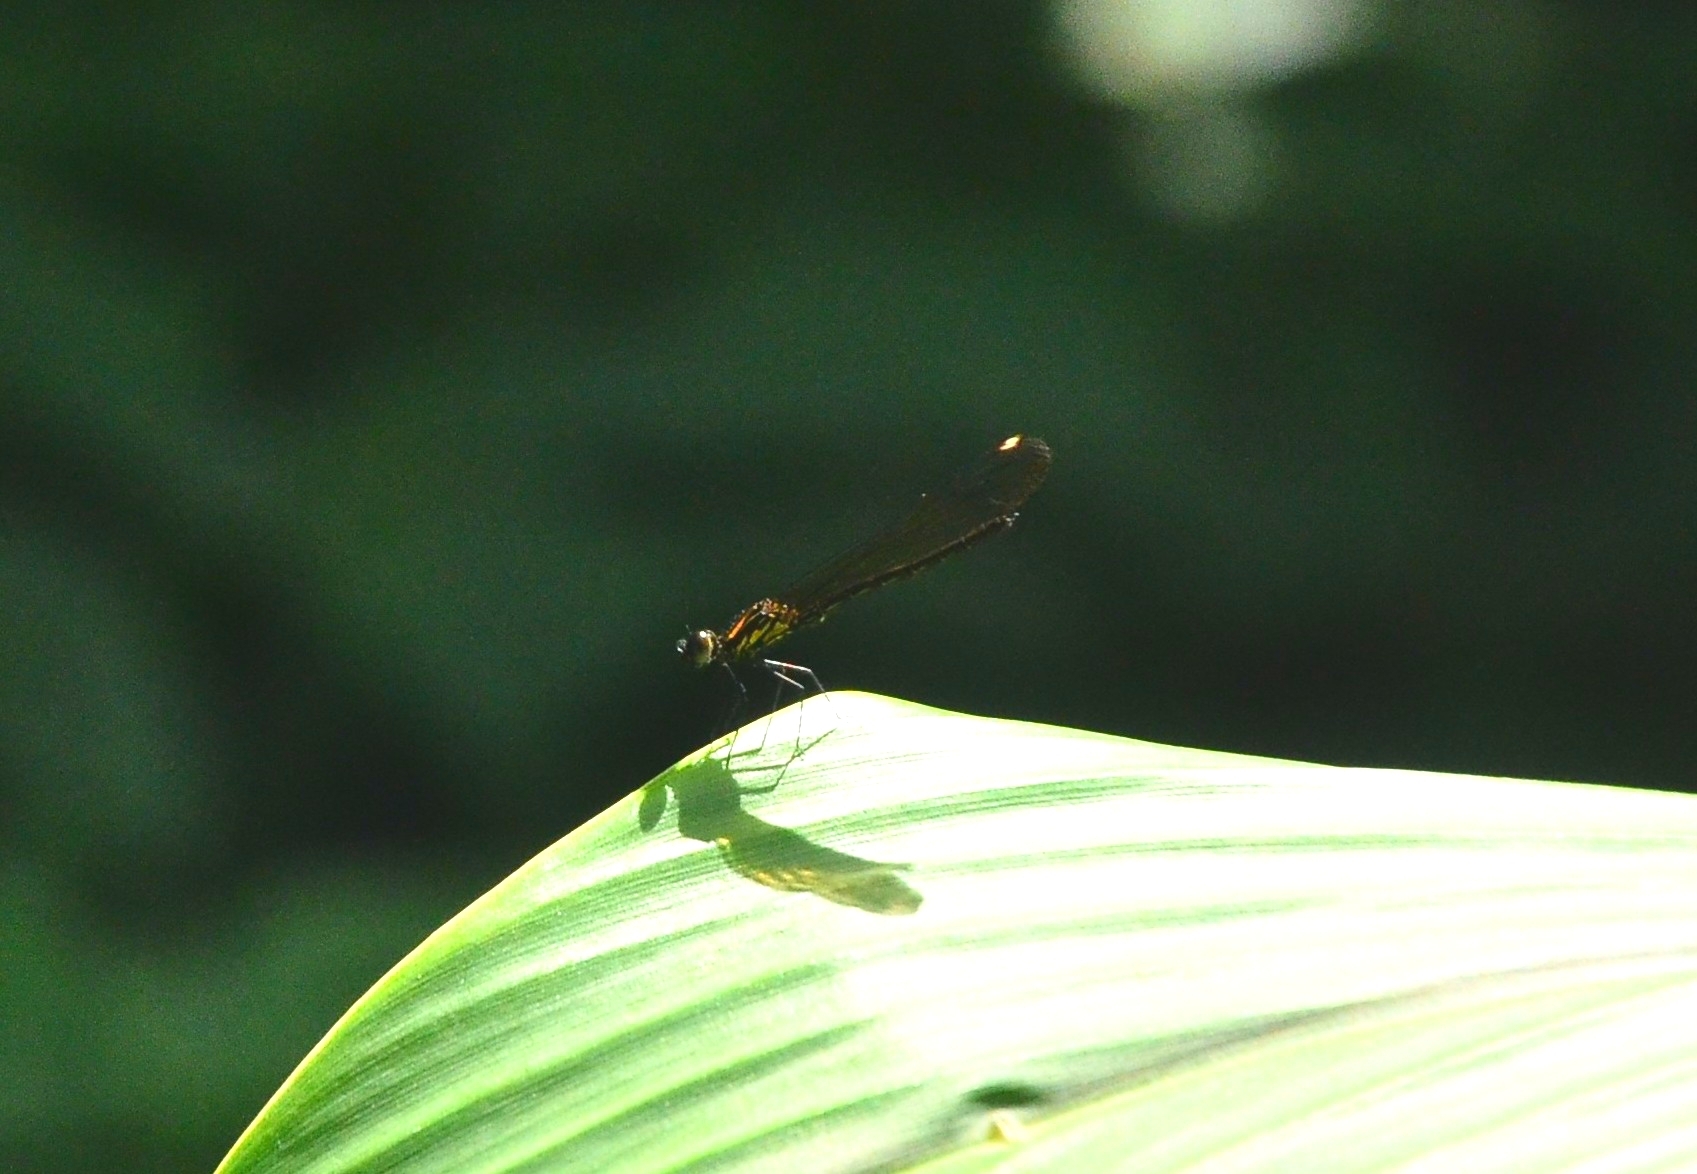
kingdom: Animalia
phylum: Arthropoda
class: Insecta
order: Odonata
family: Chlorocyphidae
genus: Heliocypha
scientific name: Heliocypha bisignata
